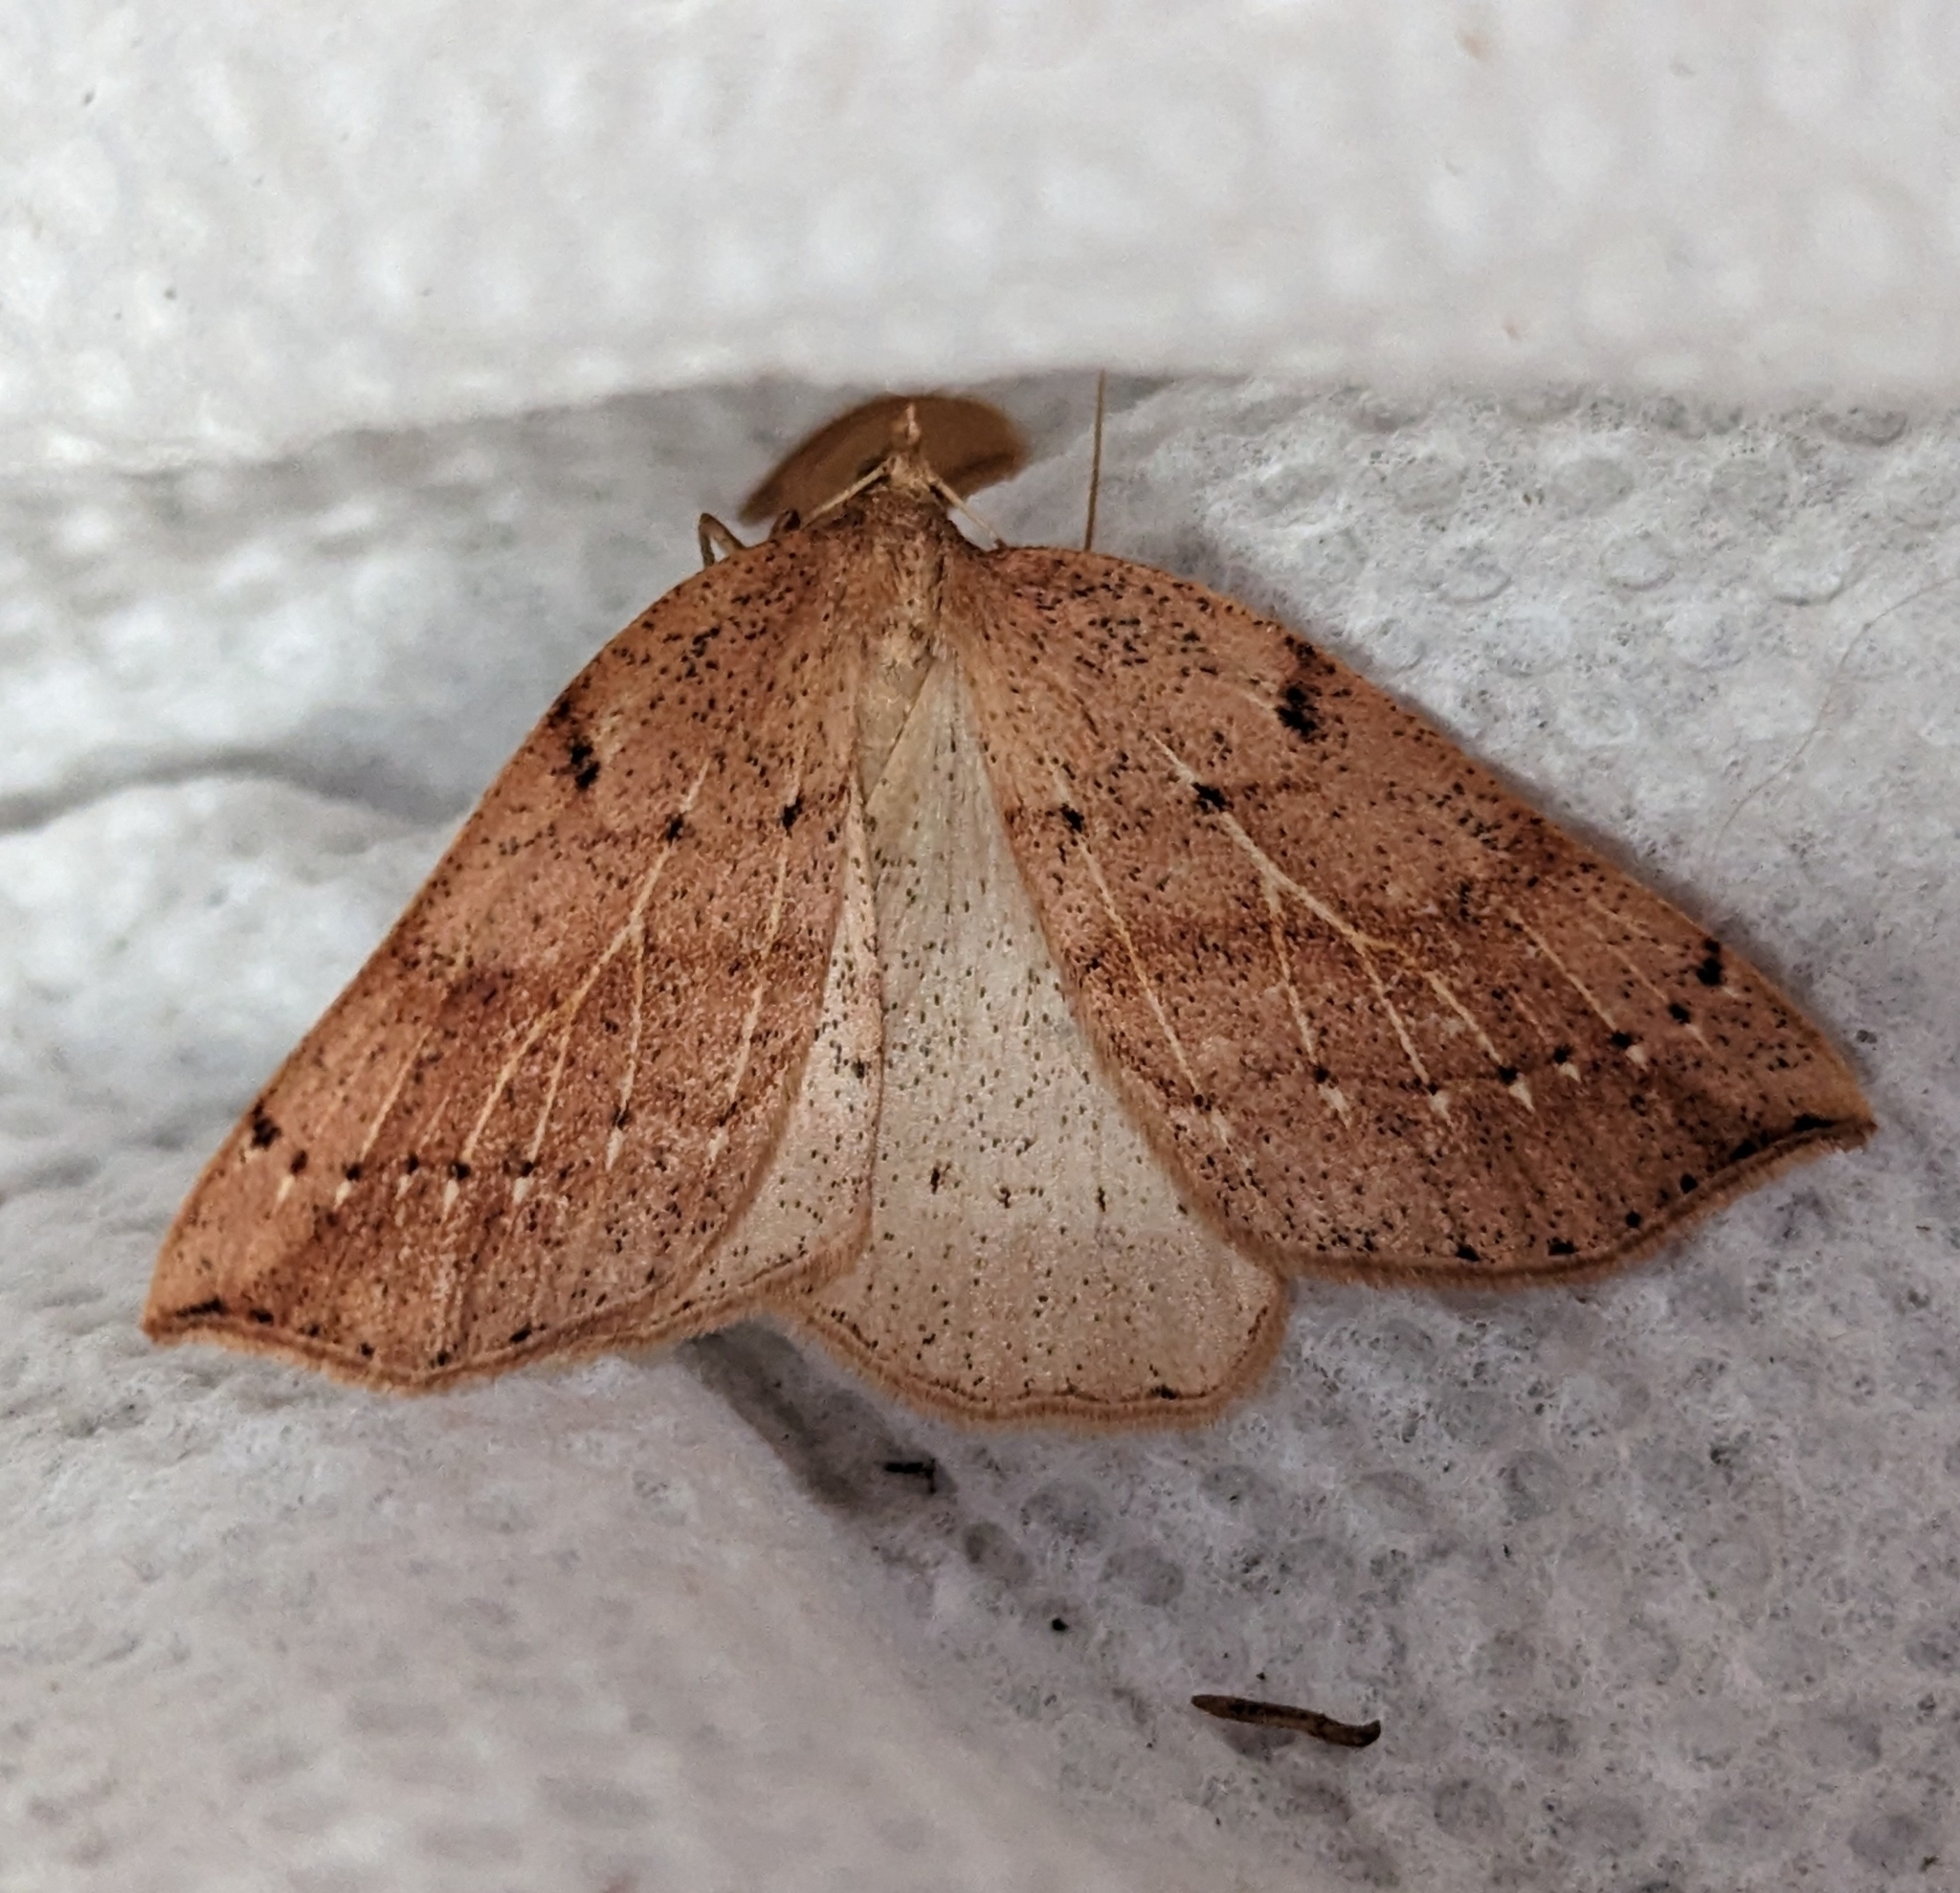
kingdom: Animalia
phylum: Arthropoda
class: Insecta
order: Lepidoptera
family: Geometridae
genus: Thallophaga
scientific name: Thallophaga hyperborea
